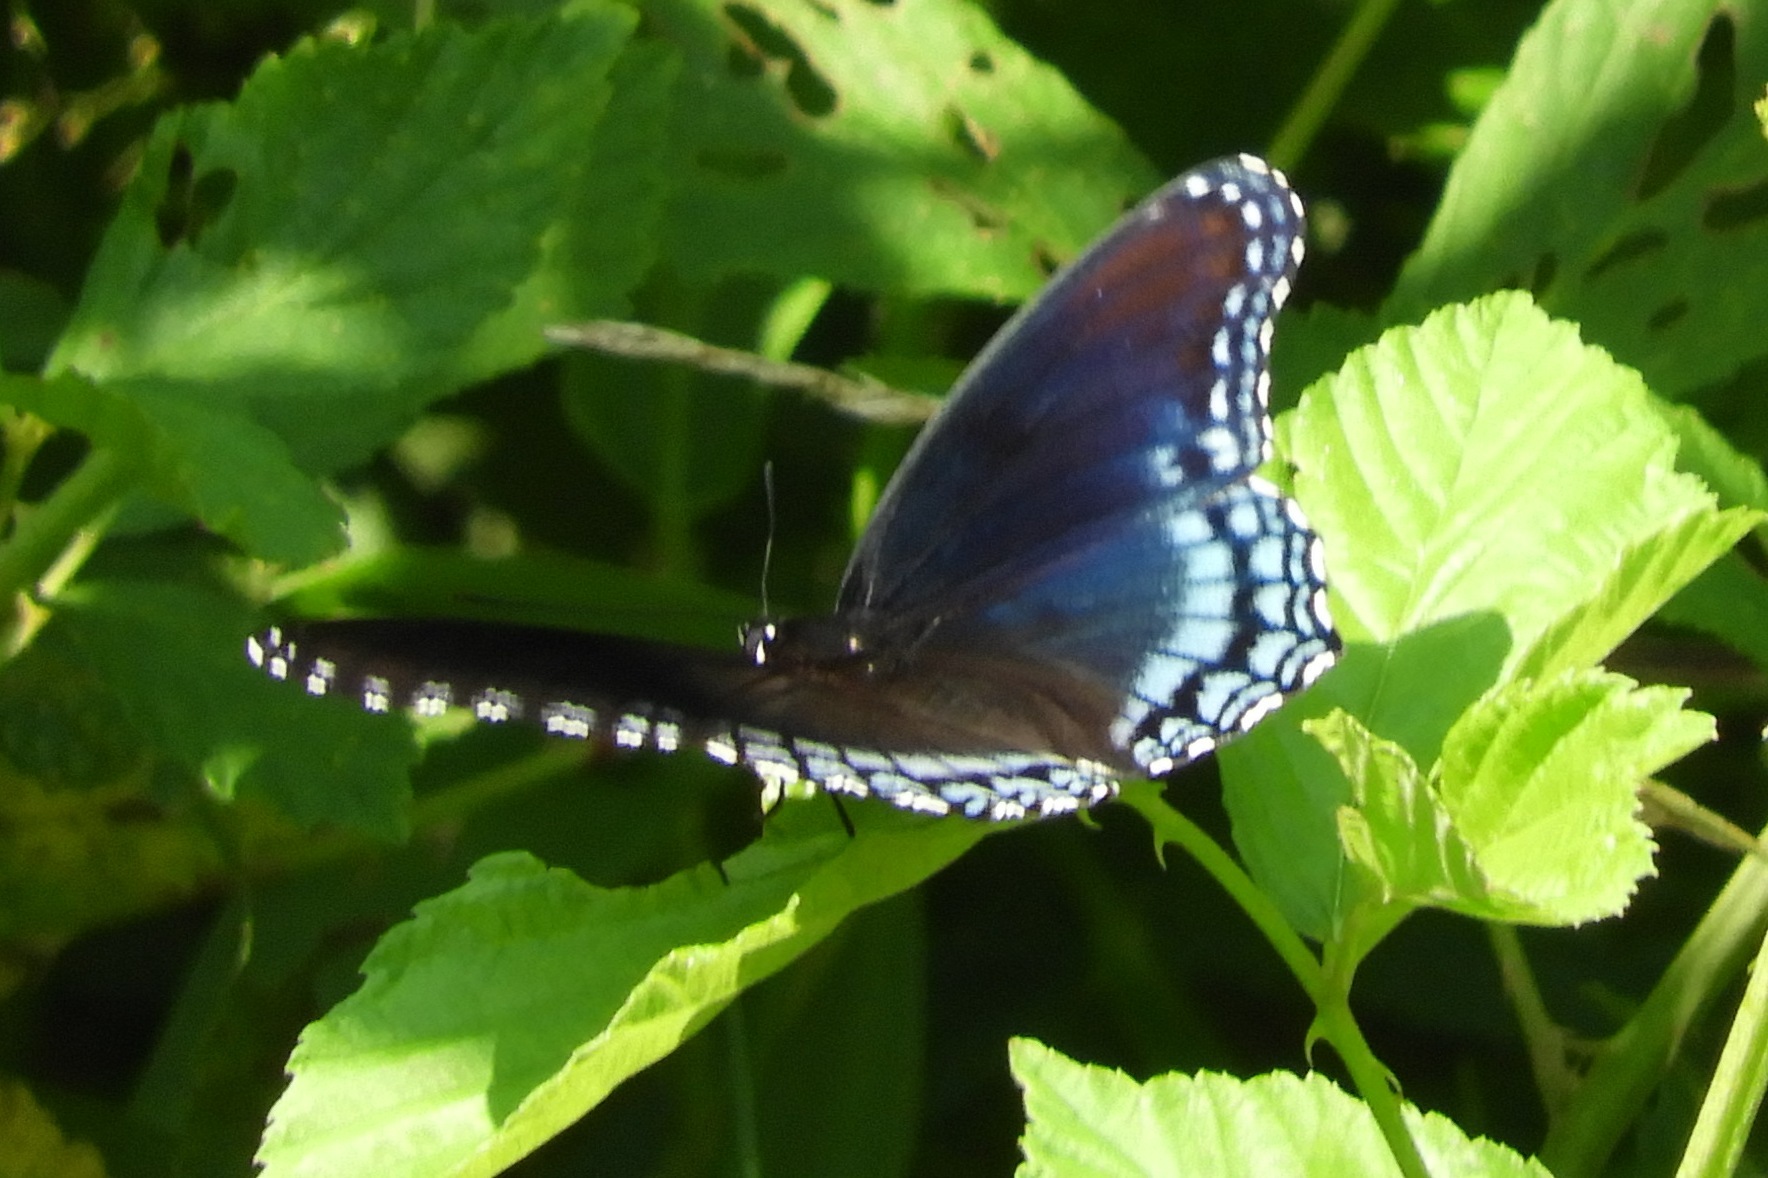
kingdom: Animalia
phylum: Arthropoda
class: Insecta
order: Lepidoptera
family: Nymphalidae
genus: Limenitis
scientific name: Limenitis arthemis
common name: Red-spotted admiral
